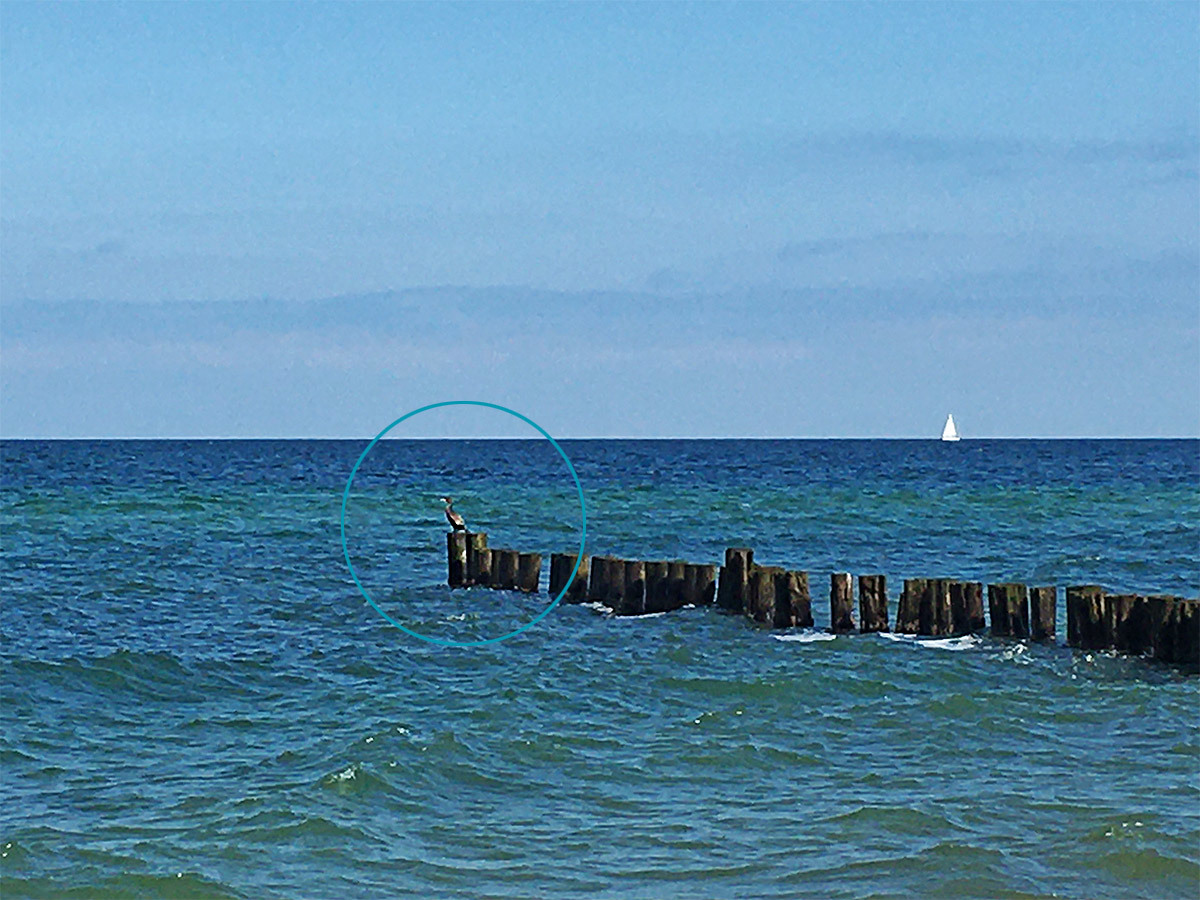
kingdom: Animalia
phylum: Chordata
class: Aves
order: Suliformes
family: Phalacrocoracidae
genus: Phalacrocorax
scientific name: Phalacrocorax carbo
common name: Great cormorant
